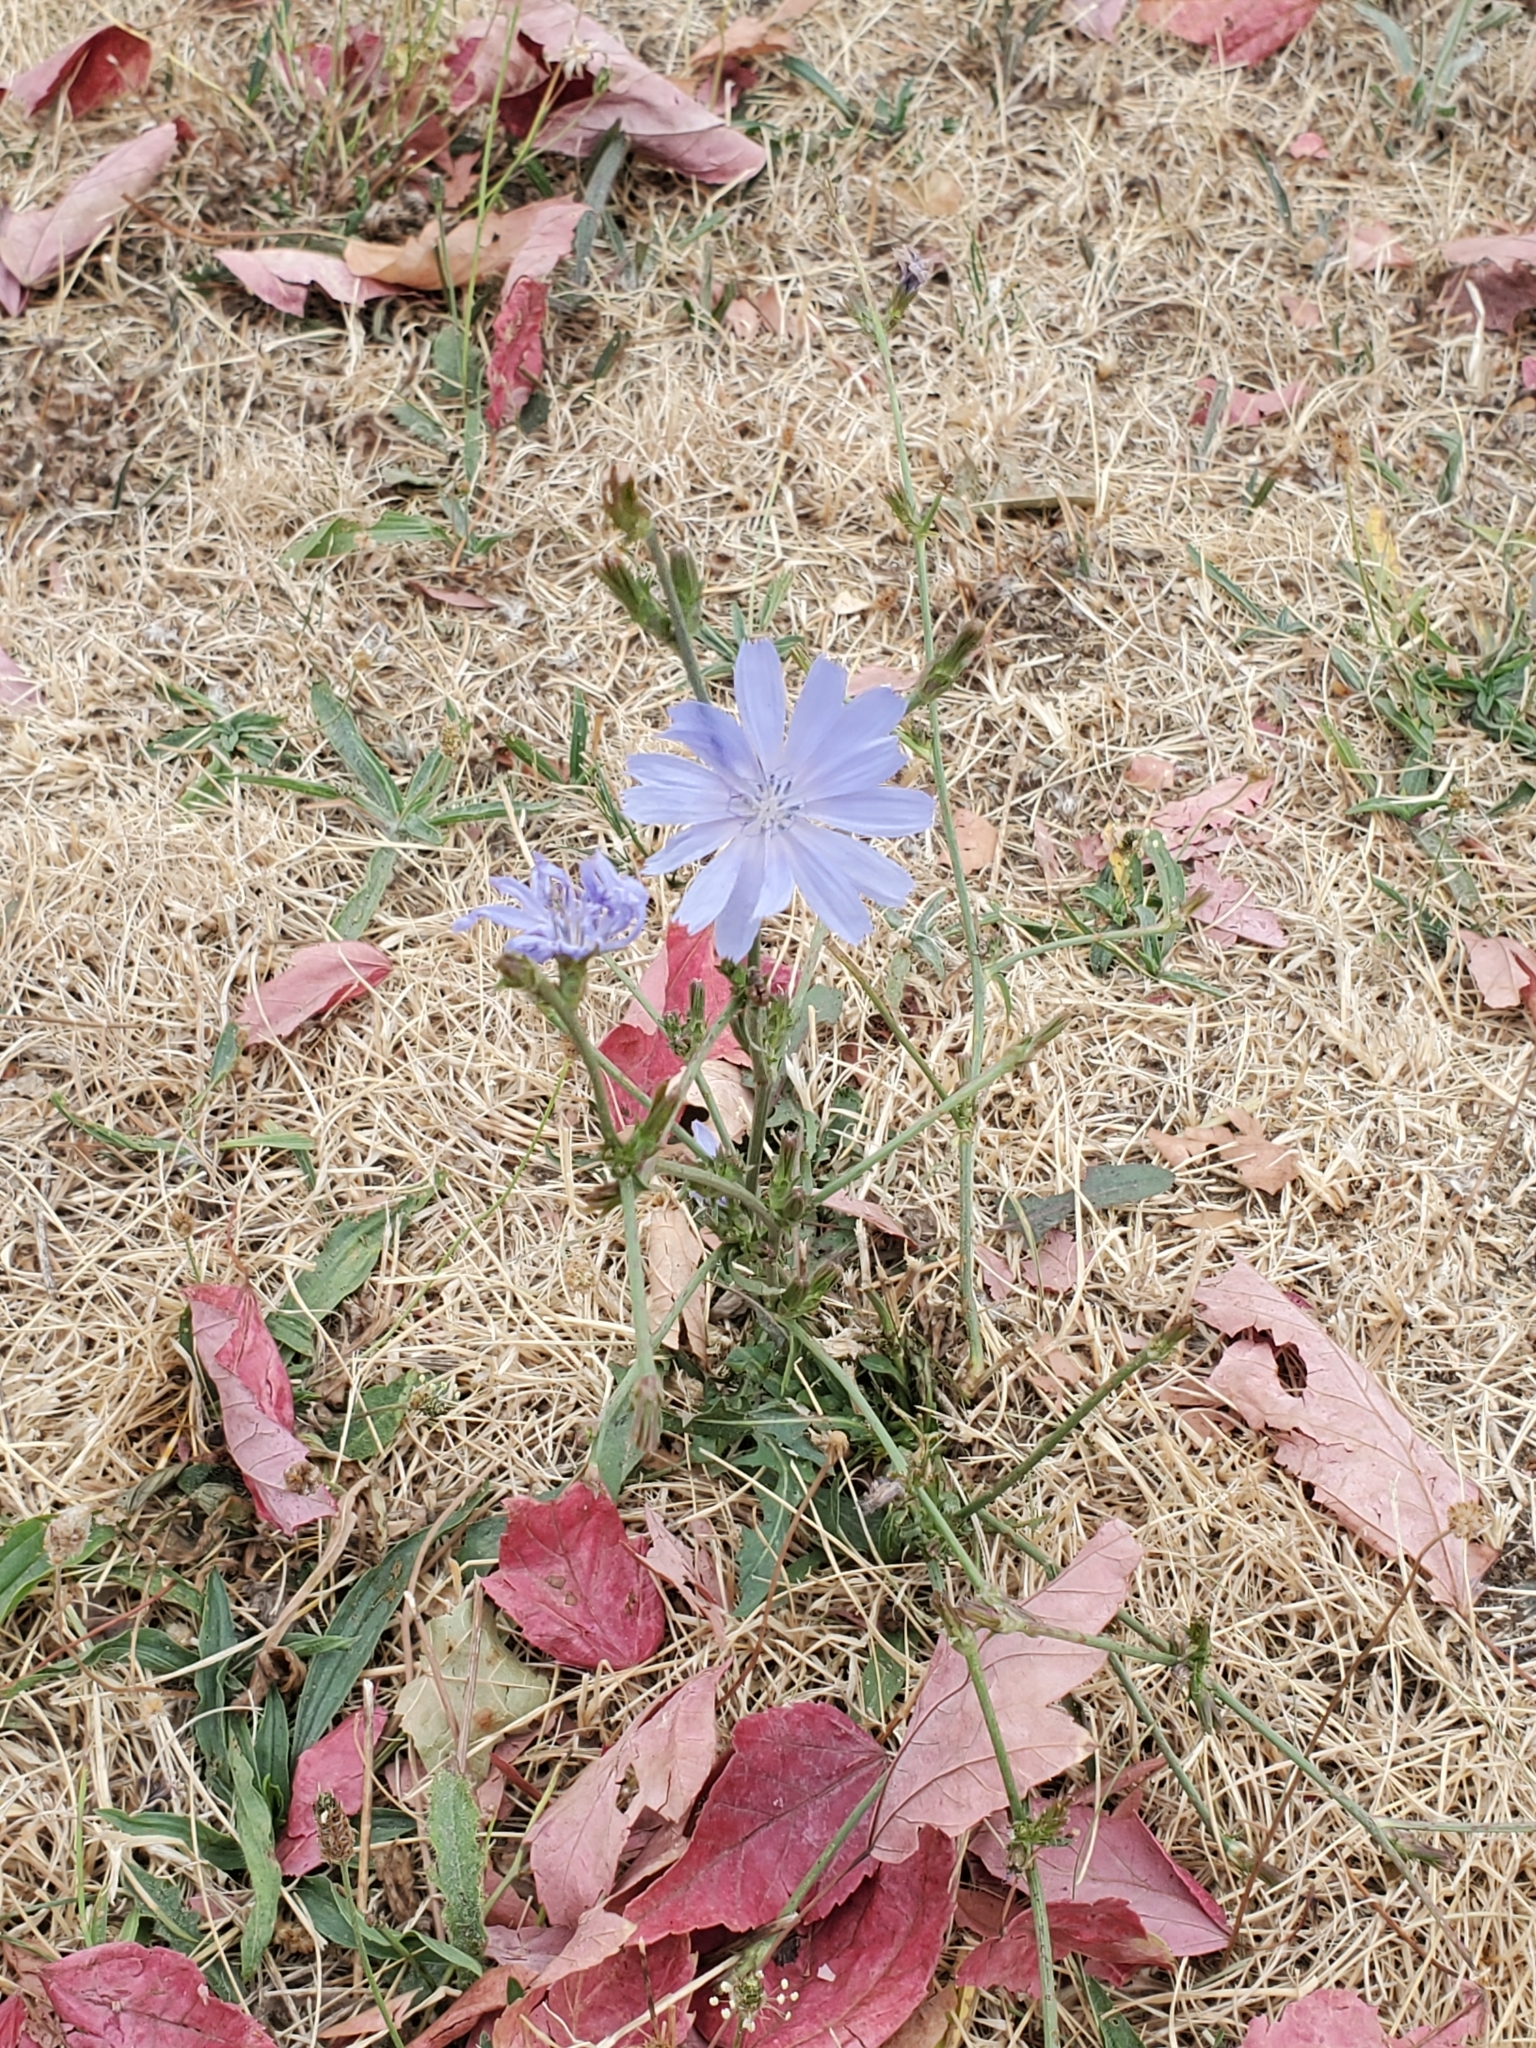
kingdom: Plantae
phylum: Tracheophyta
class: Magnoliopsida
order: Asterales
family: Asteraceae
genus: Cichorium
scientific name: Cichorium intybus
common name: Chicory
